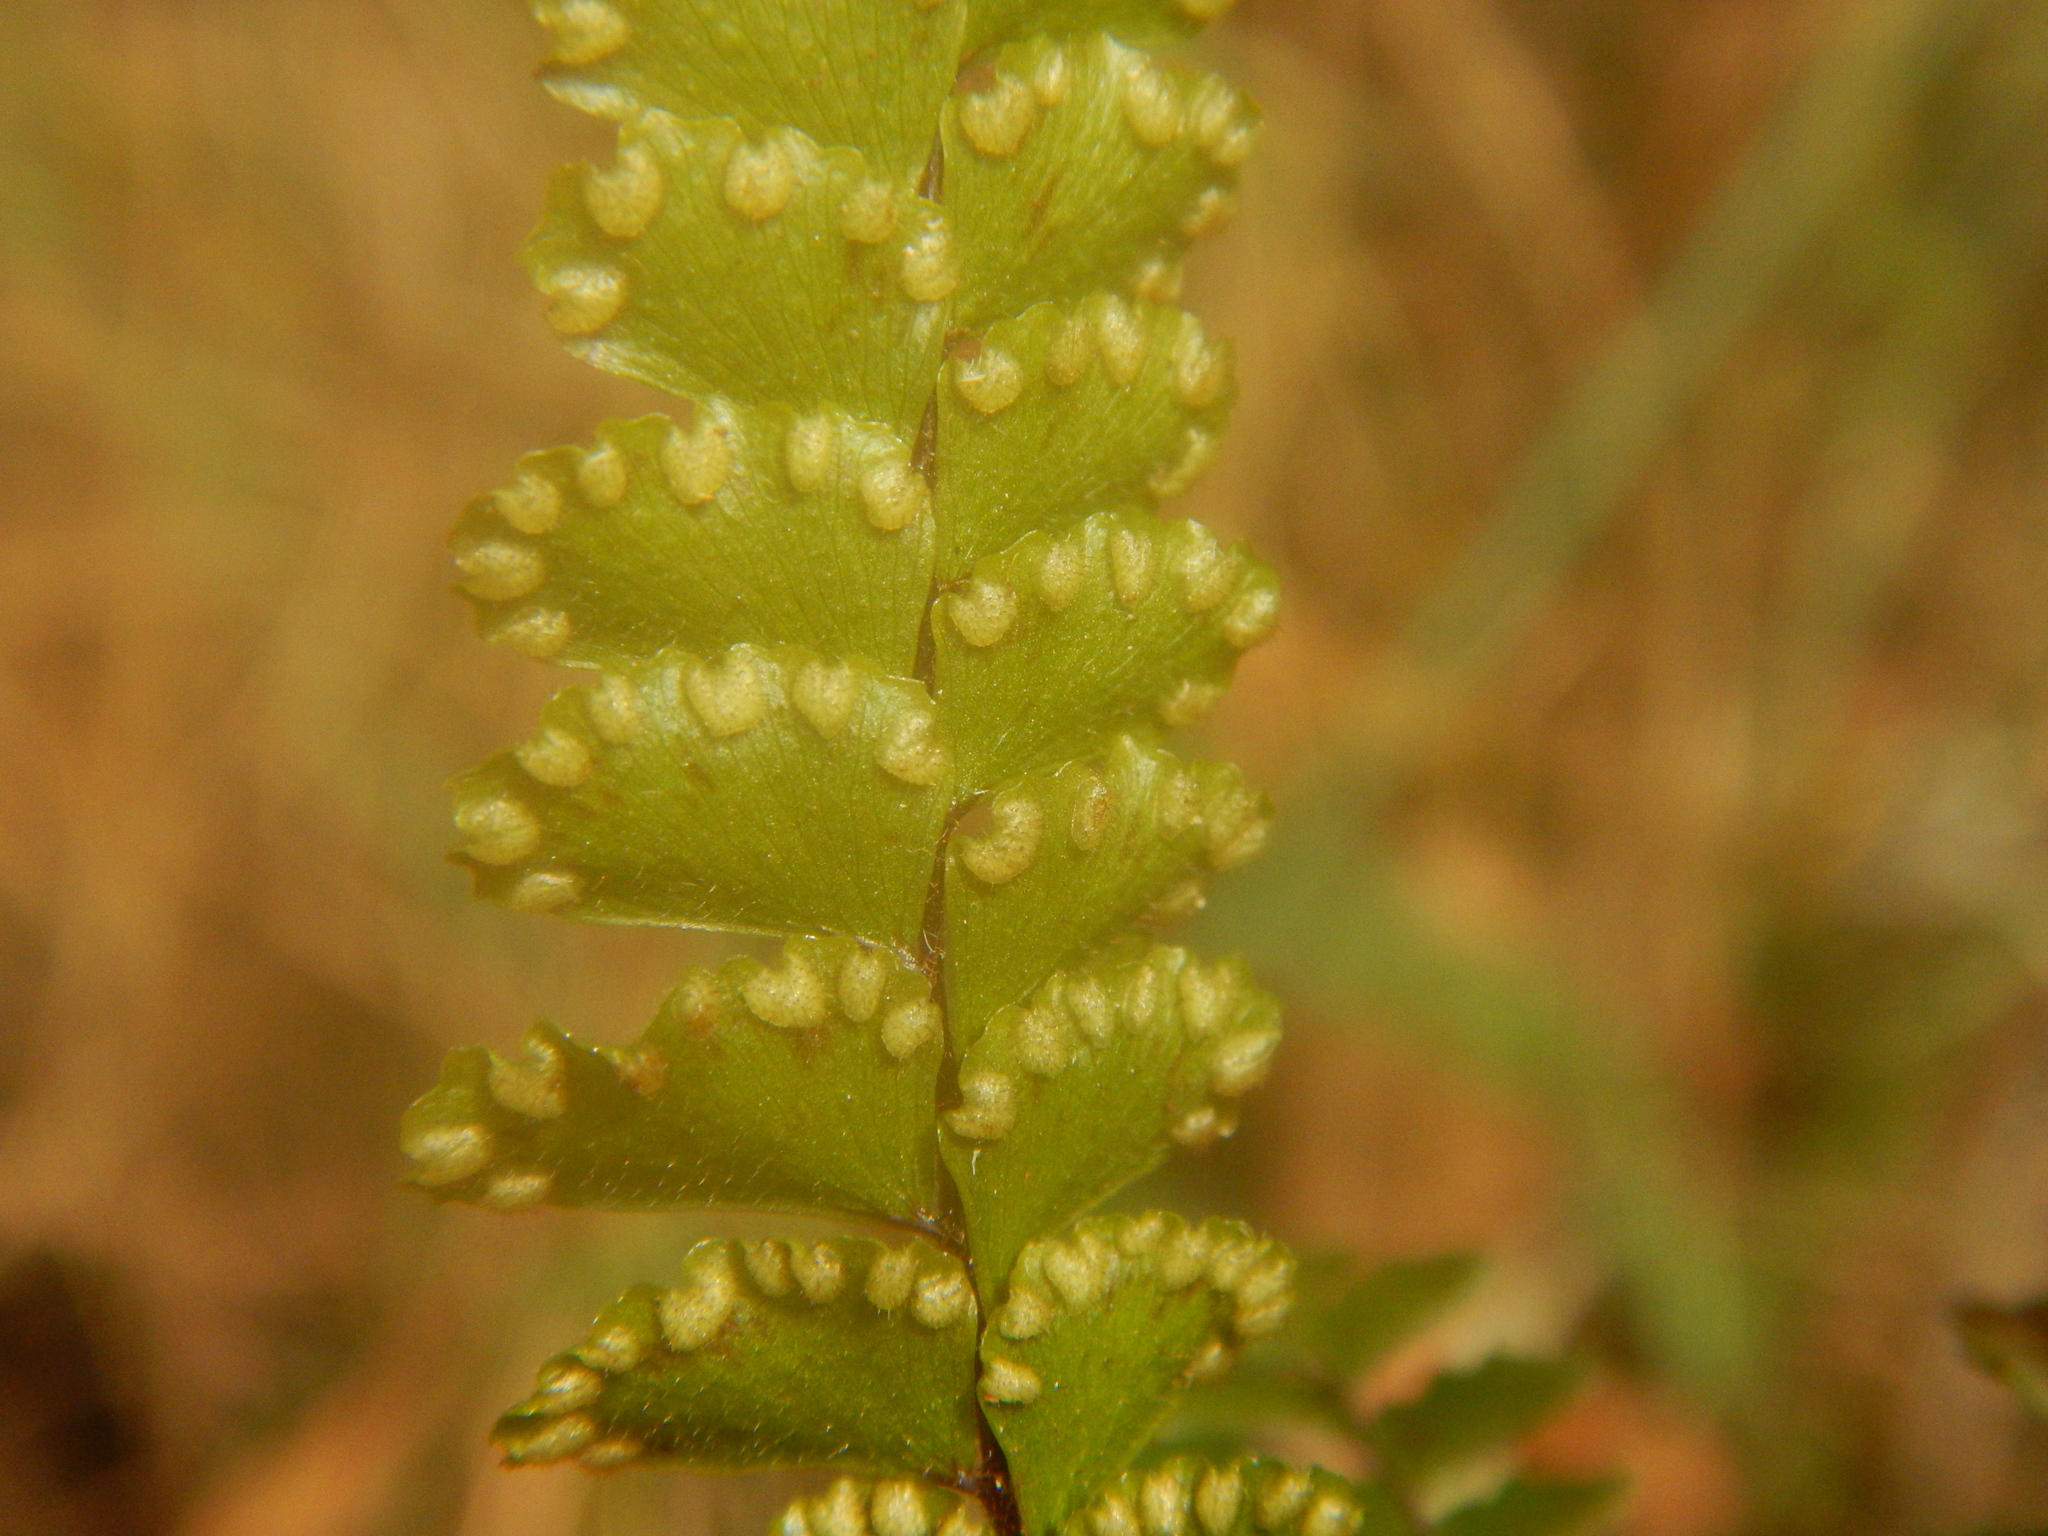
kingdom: Plantae
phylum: Tracheophyta
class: Polypodiopsida
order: Polypodiales
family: Pteridaceae
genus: Adiantum
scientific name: Adiantum hispidulum
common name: Rough maidenhair
